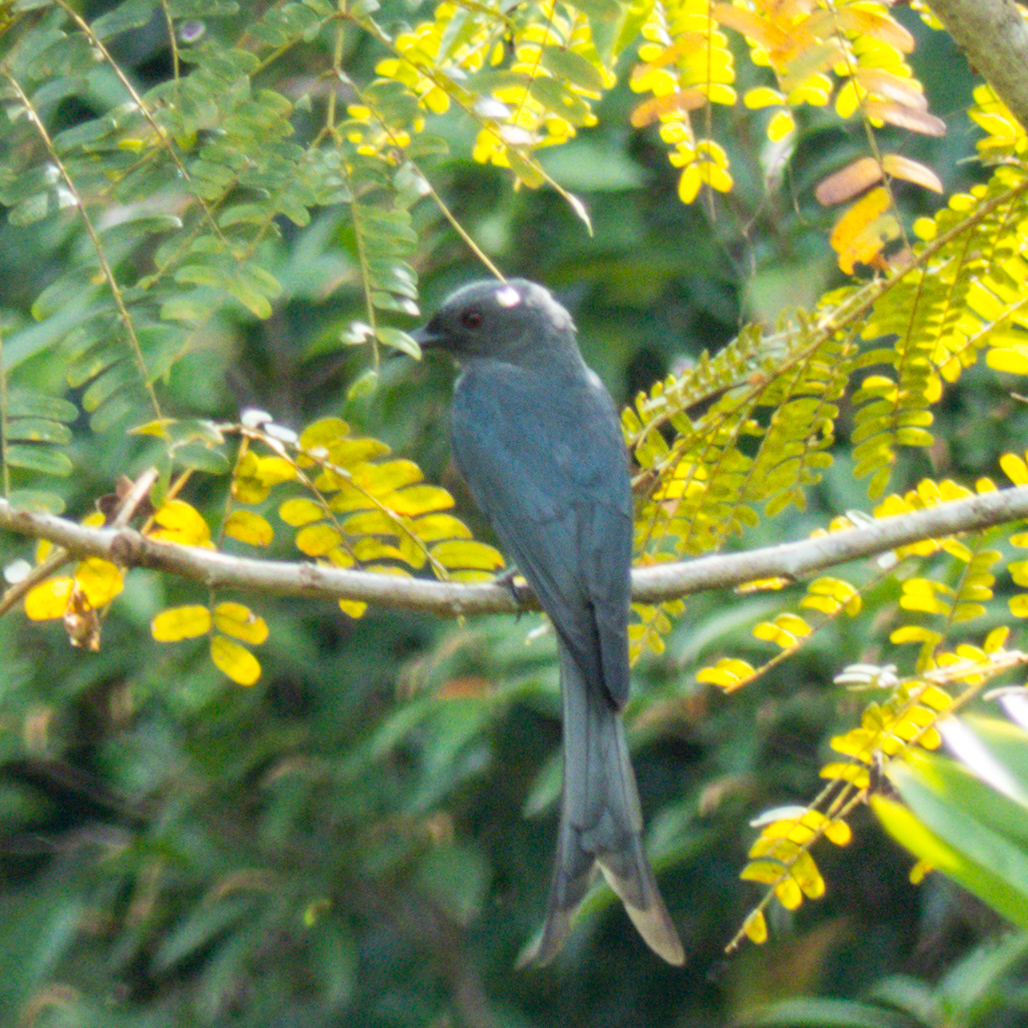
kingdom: Animalia
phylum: Chordata
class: Aves
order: Passeriformes
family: Dicruridae
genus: Dicrurus
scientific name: Dicrurus leucophaeus
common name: Ashy drongo
